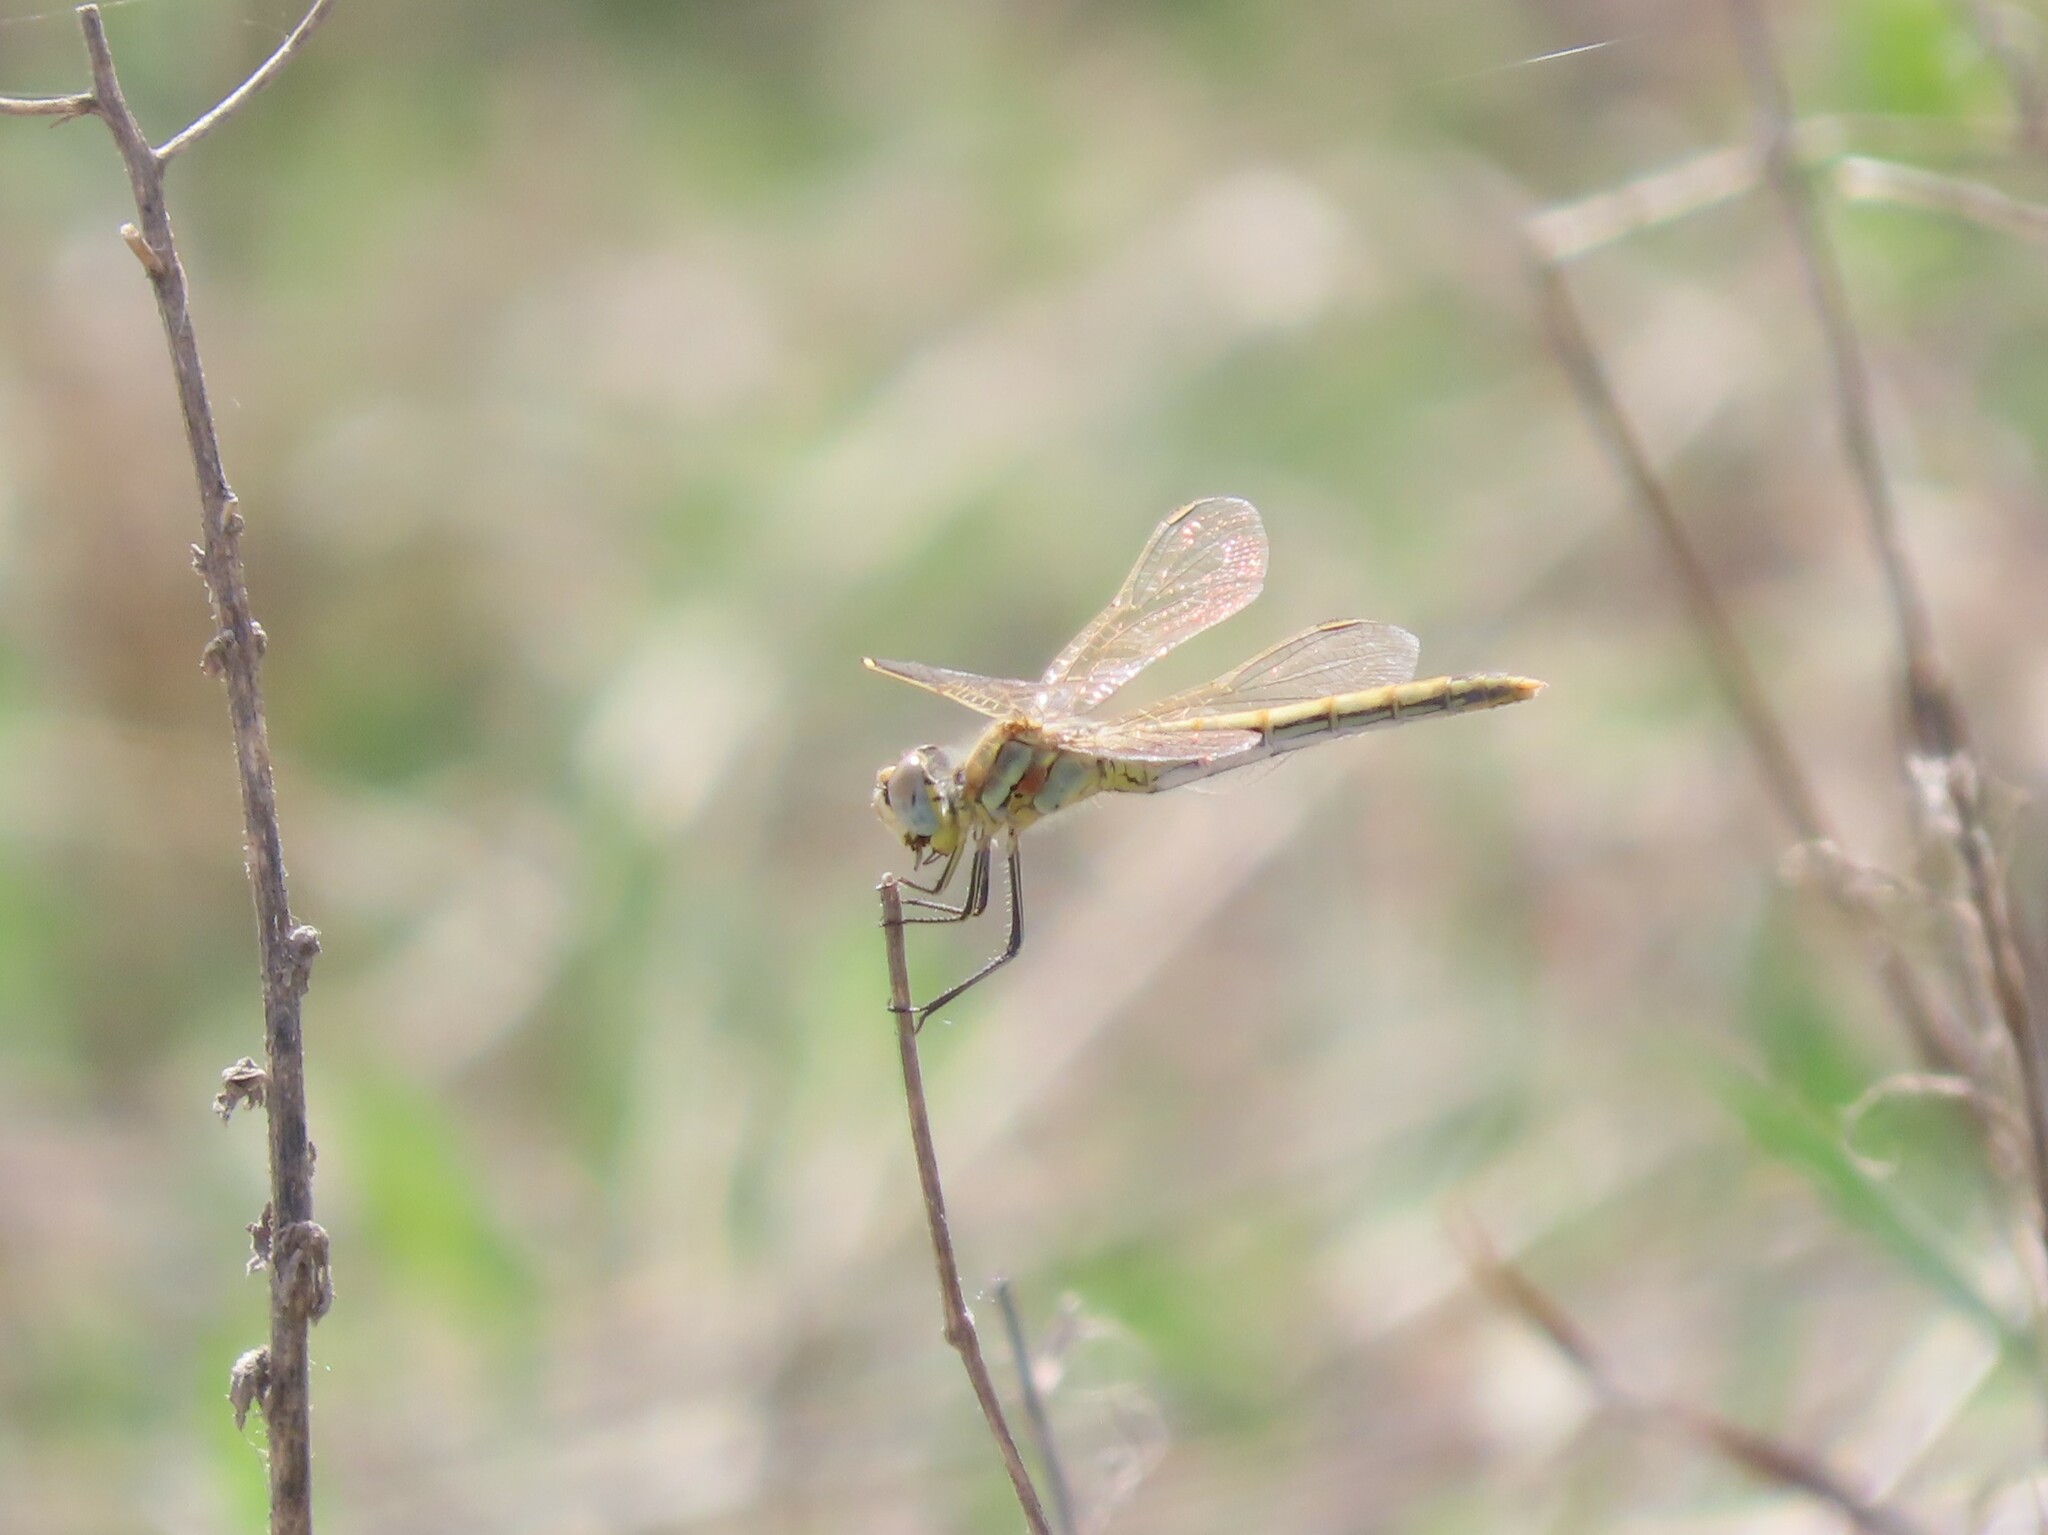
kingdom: Animalia
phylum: Arthropoda
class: Insecta
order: Odonata
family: Libellulidae
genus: Sympetrum
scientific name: Sympetrum fonscolombii
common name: Red-veined darter
